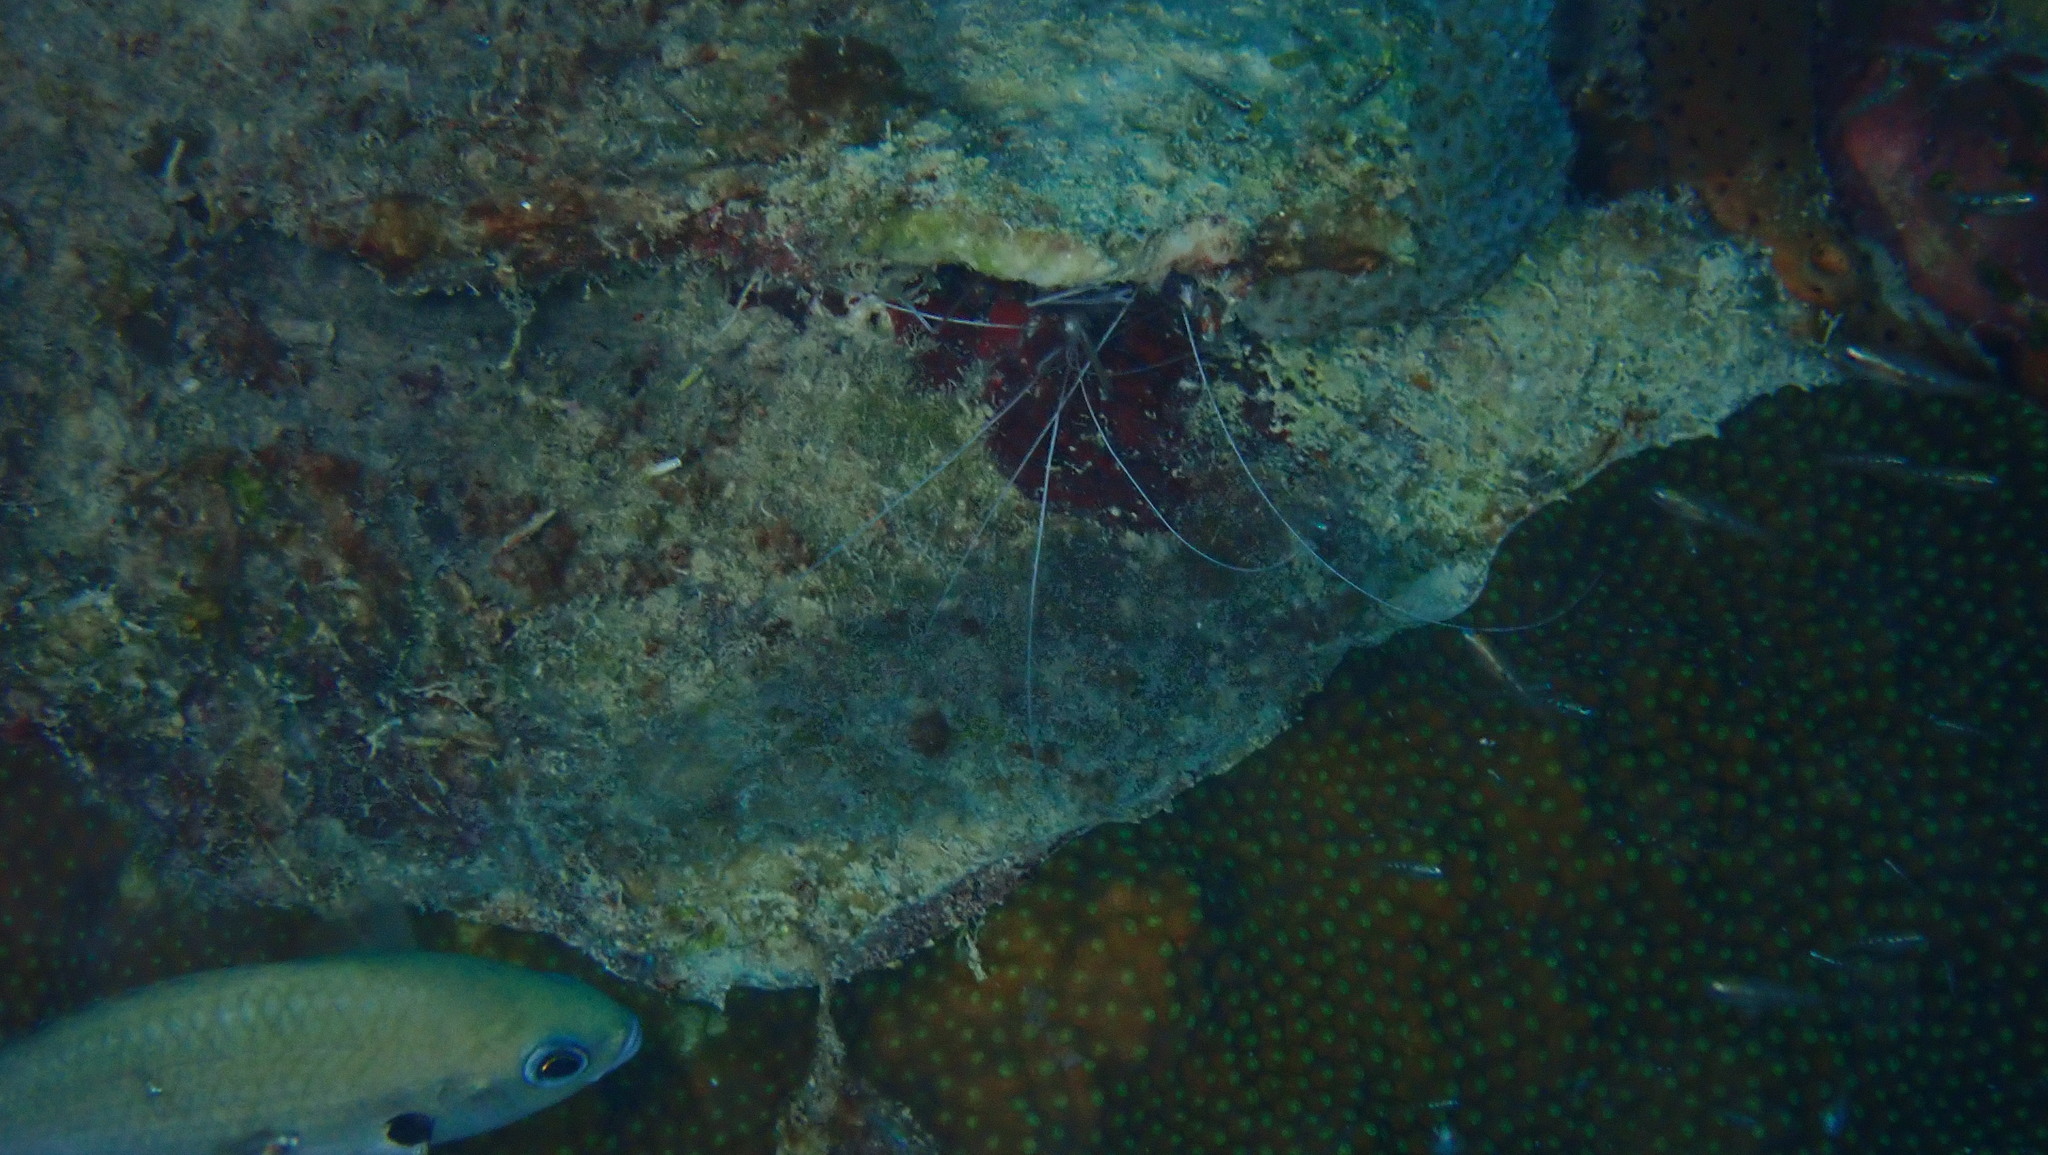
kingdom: Animalia
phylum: Arthropoda
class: Malacostraca
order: Decapoda
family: Stenopodidae
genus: Stenopus
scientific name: Stenopus hispidus
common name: Banded coral shrimp
